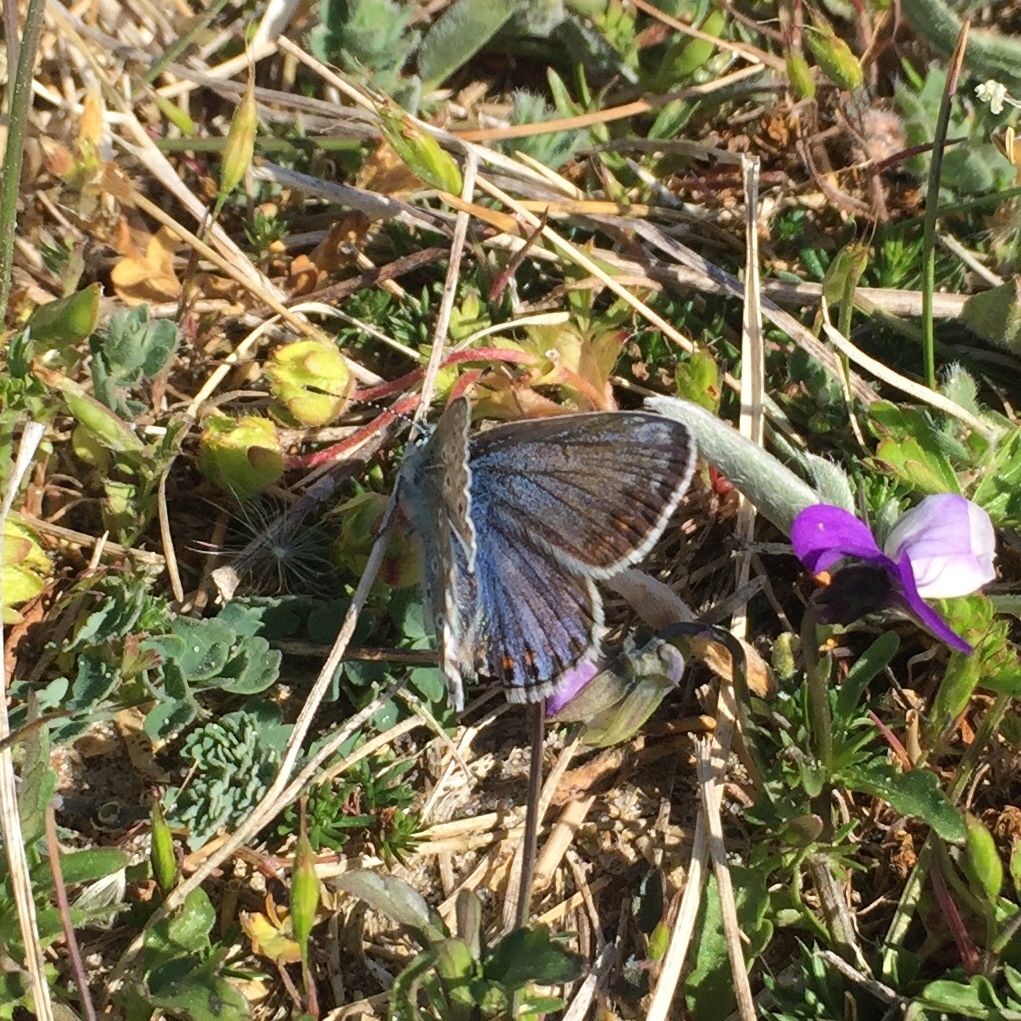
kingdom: Animalia
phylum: Arthropoda
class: Insecta
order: Lepidoptera
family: Lycaenidae
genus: Polyommatus
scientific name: Polyommatus icarus
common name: Common blue
